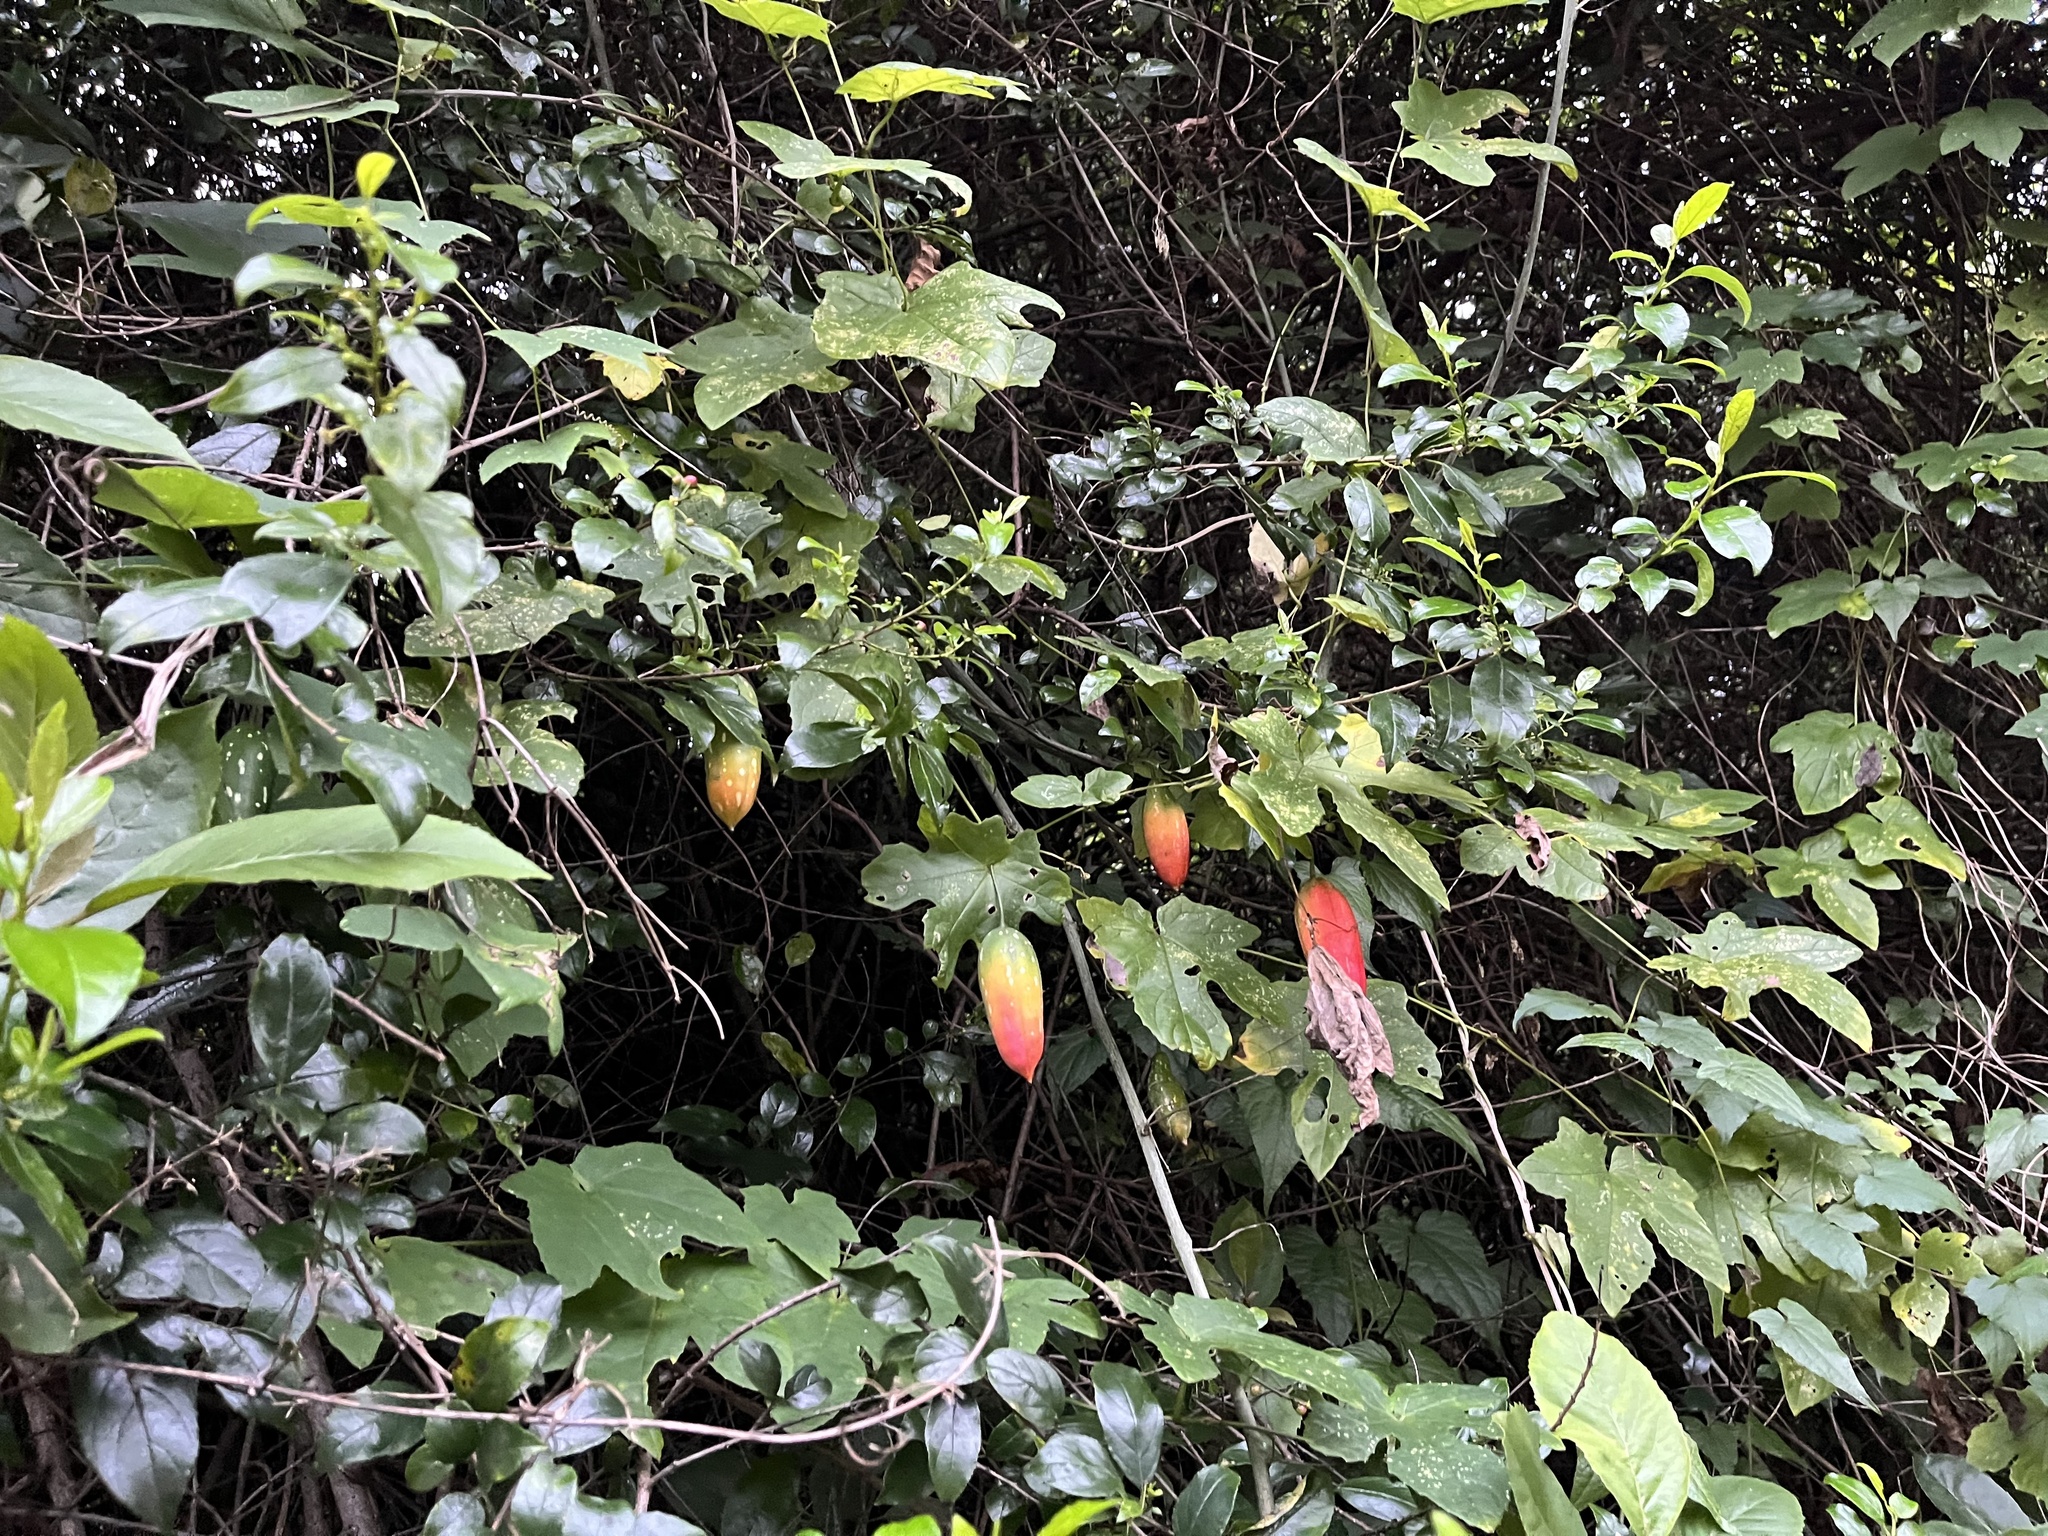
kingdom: Plantae
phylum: Tracheophyta
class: Magnoliopsida
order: Cucurbitales
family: Cucurbitaceae
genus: Coccinia
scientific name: Coccinia palmata
